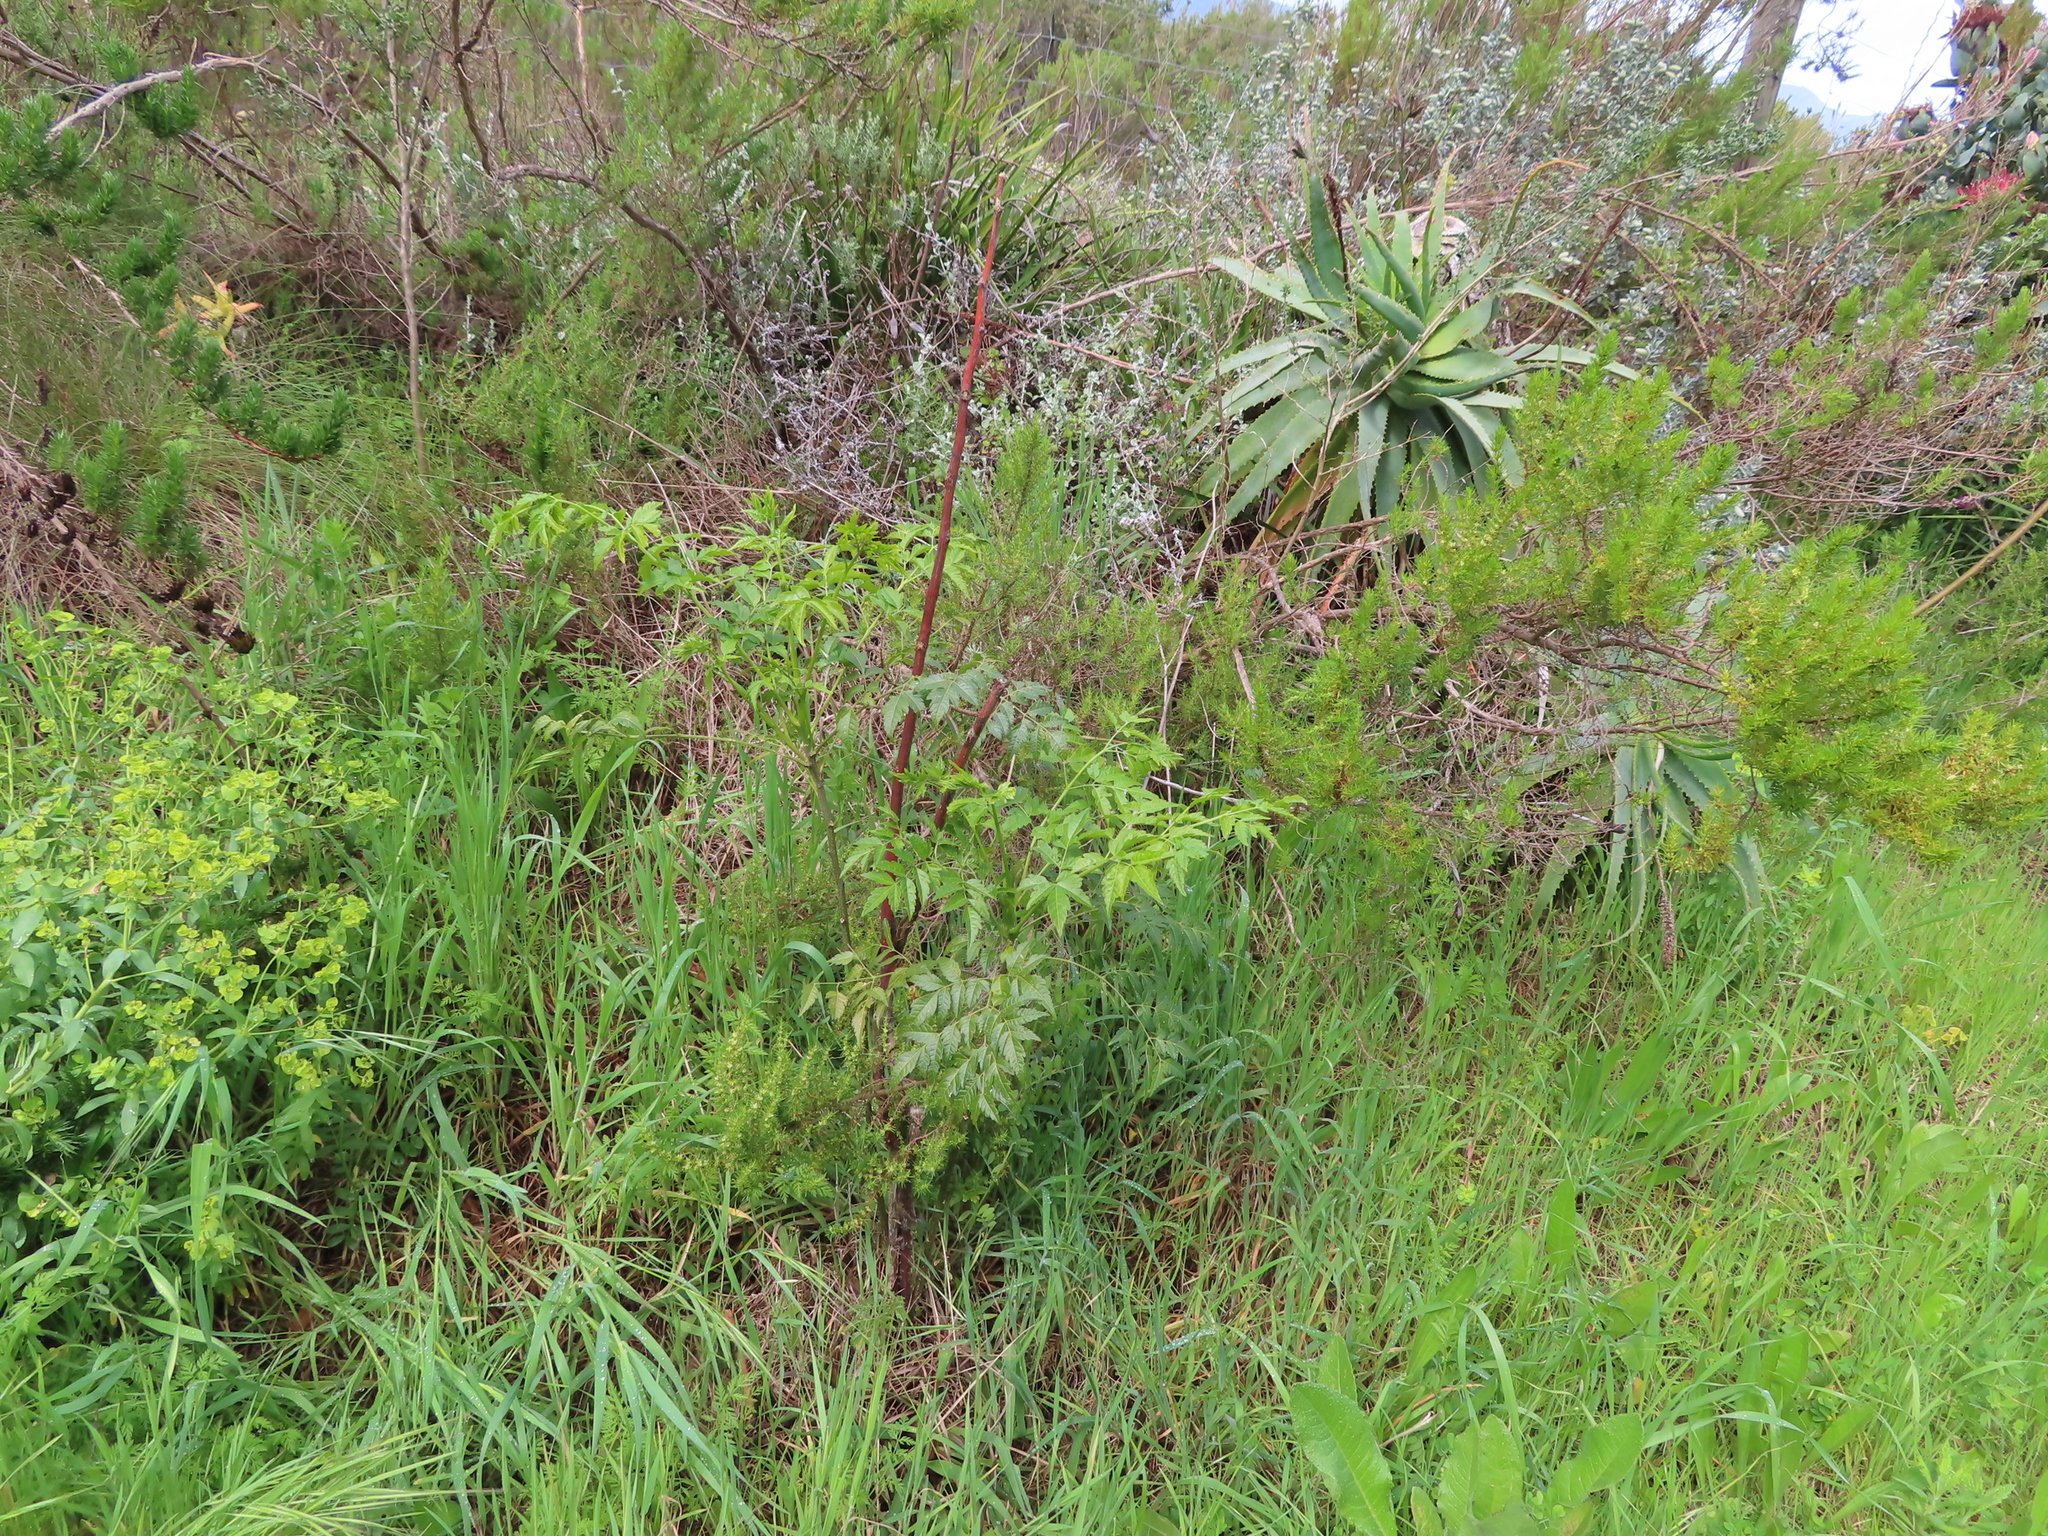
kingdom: Plantae
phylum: Tracheophyta
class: Magnoliopsida
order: Sapindales
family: Meliaceae
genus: Melia
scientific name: Melia azedarach
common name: Chinaberrytree
